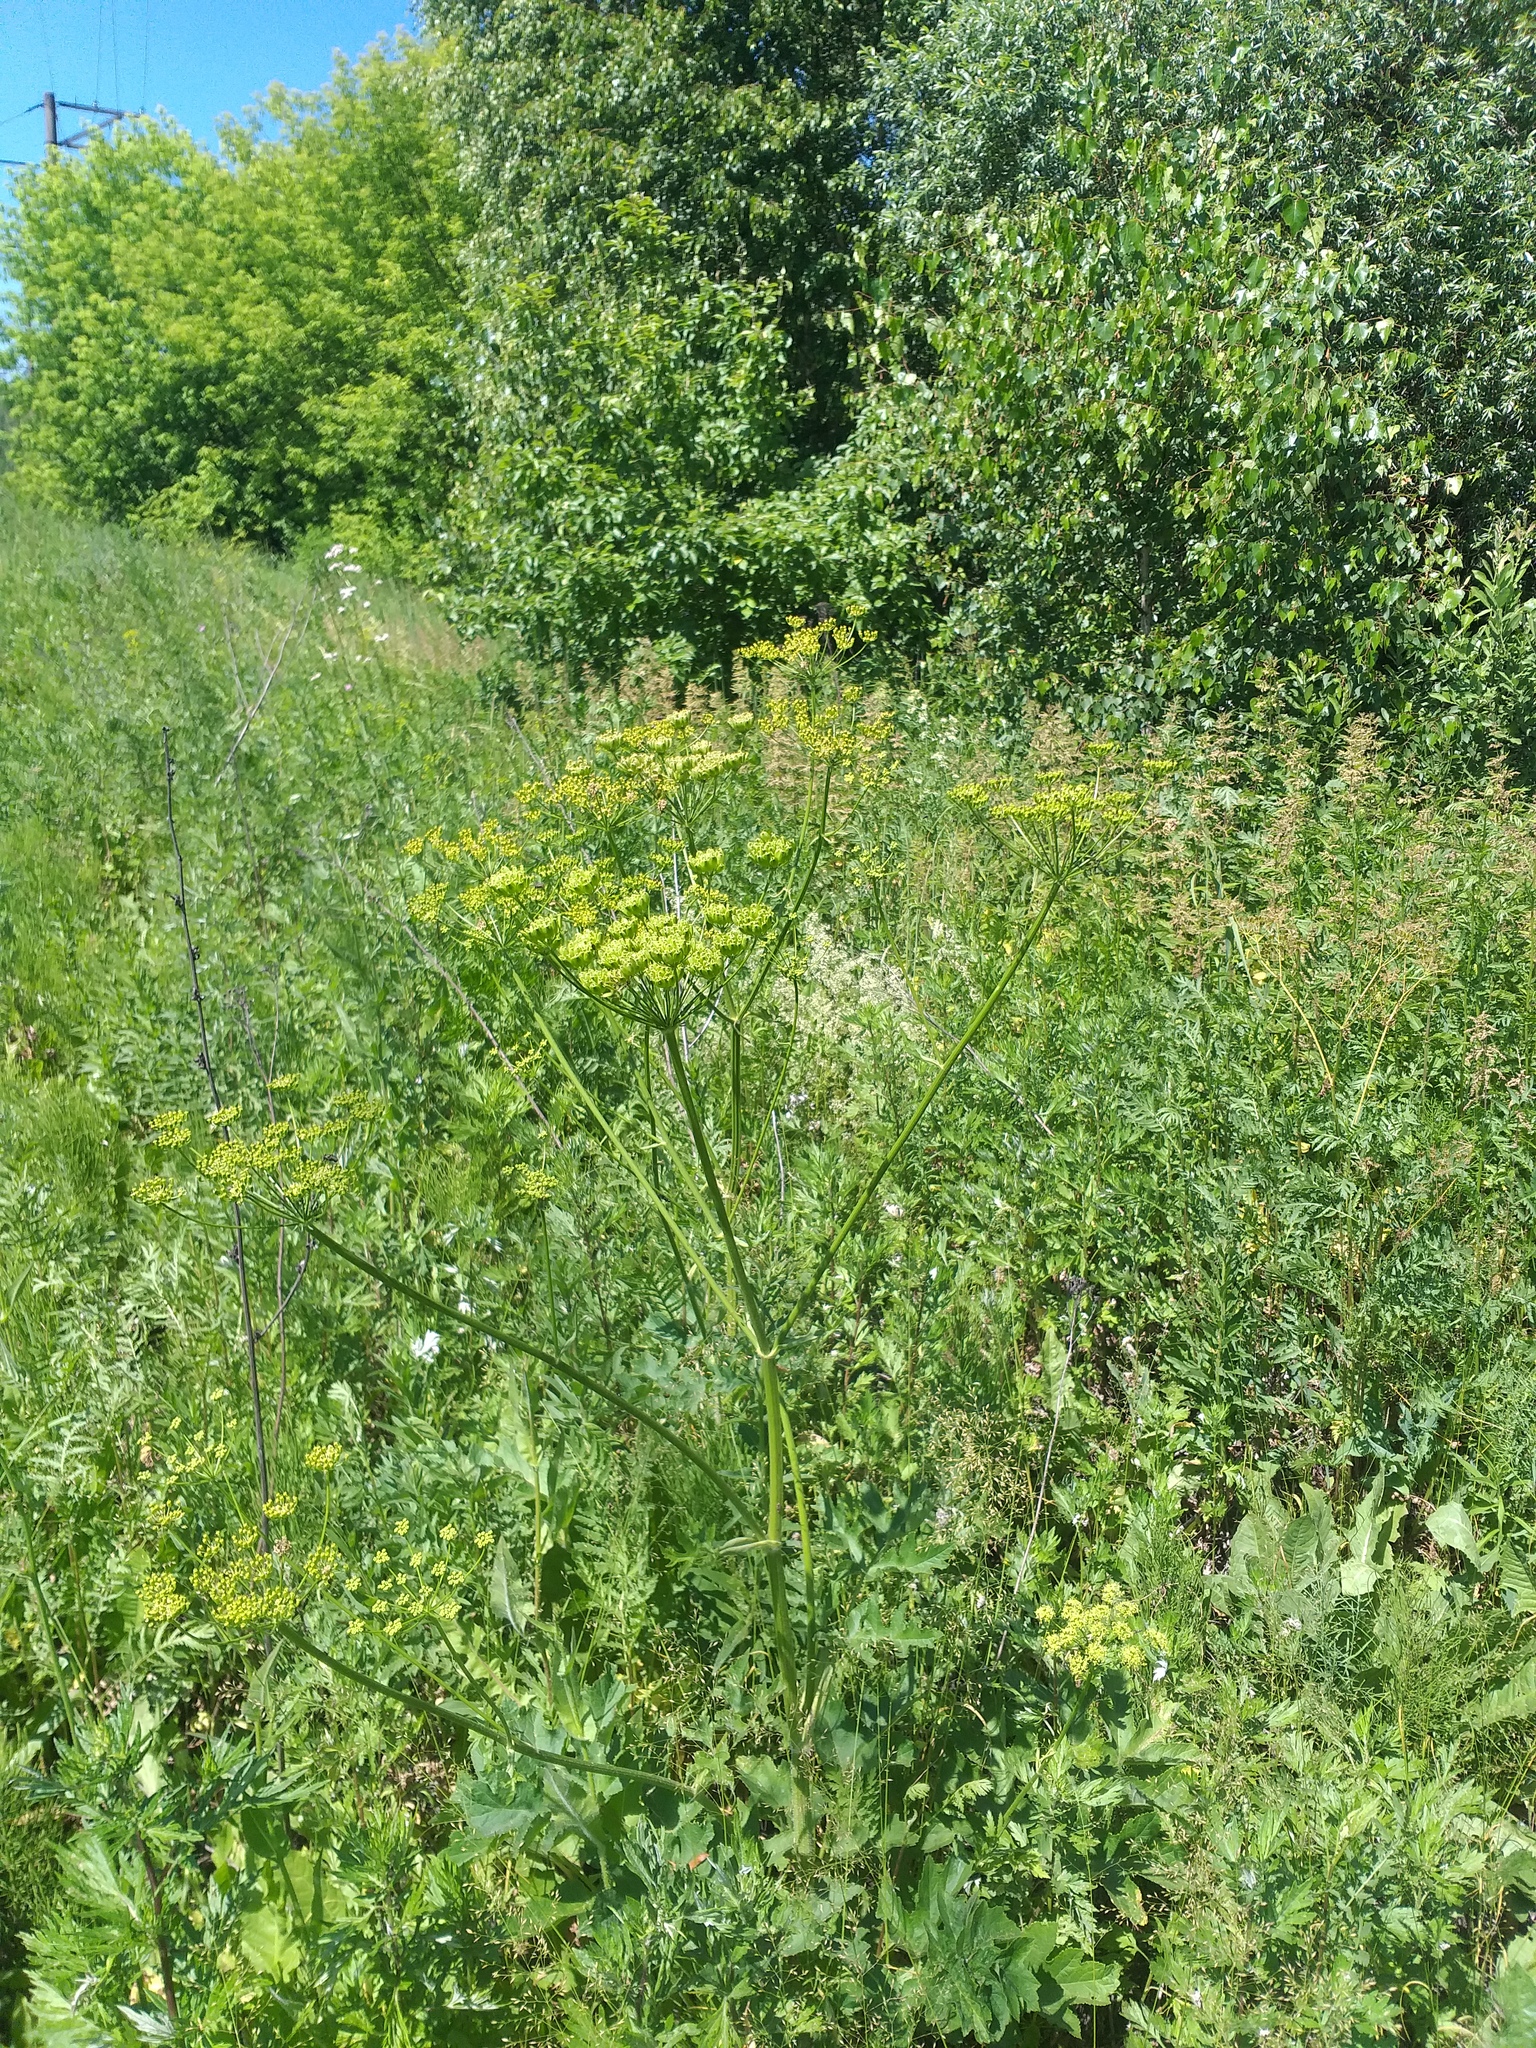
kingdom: Plantae
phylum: Tracheophyta
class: Magnoliopsida
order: Apiales
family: Apiaceae
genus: Heracleum
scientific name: Heracleum sphondylium
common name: Hogweed
